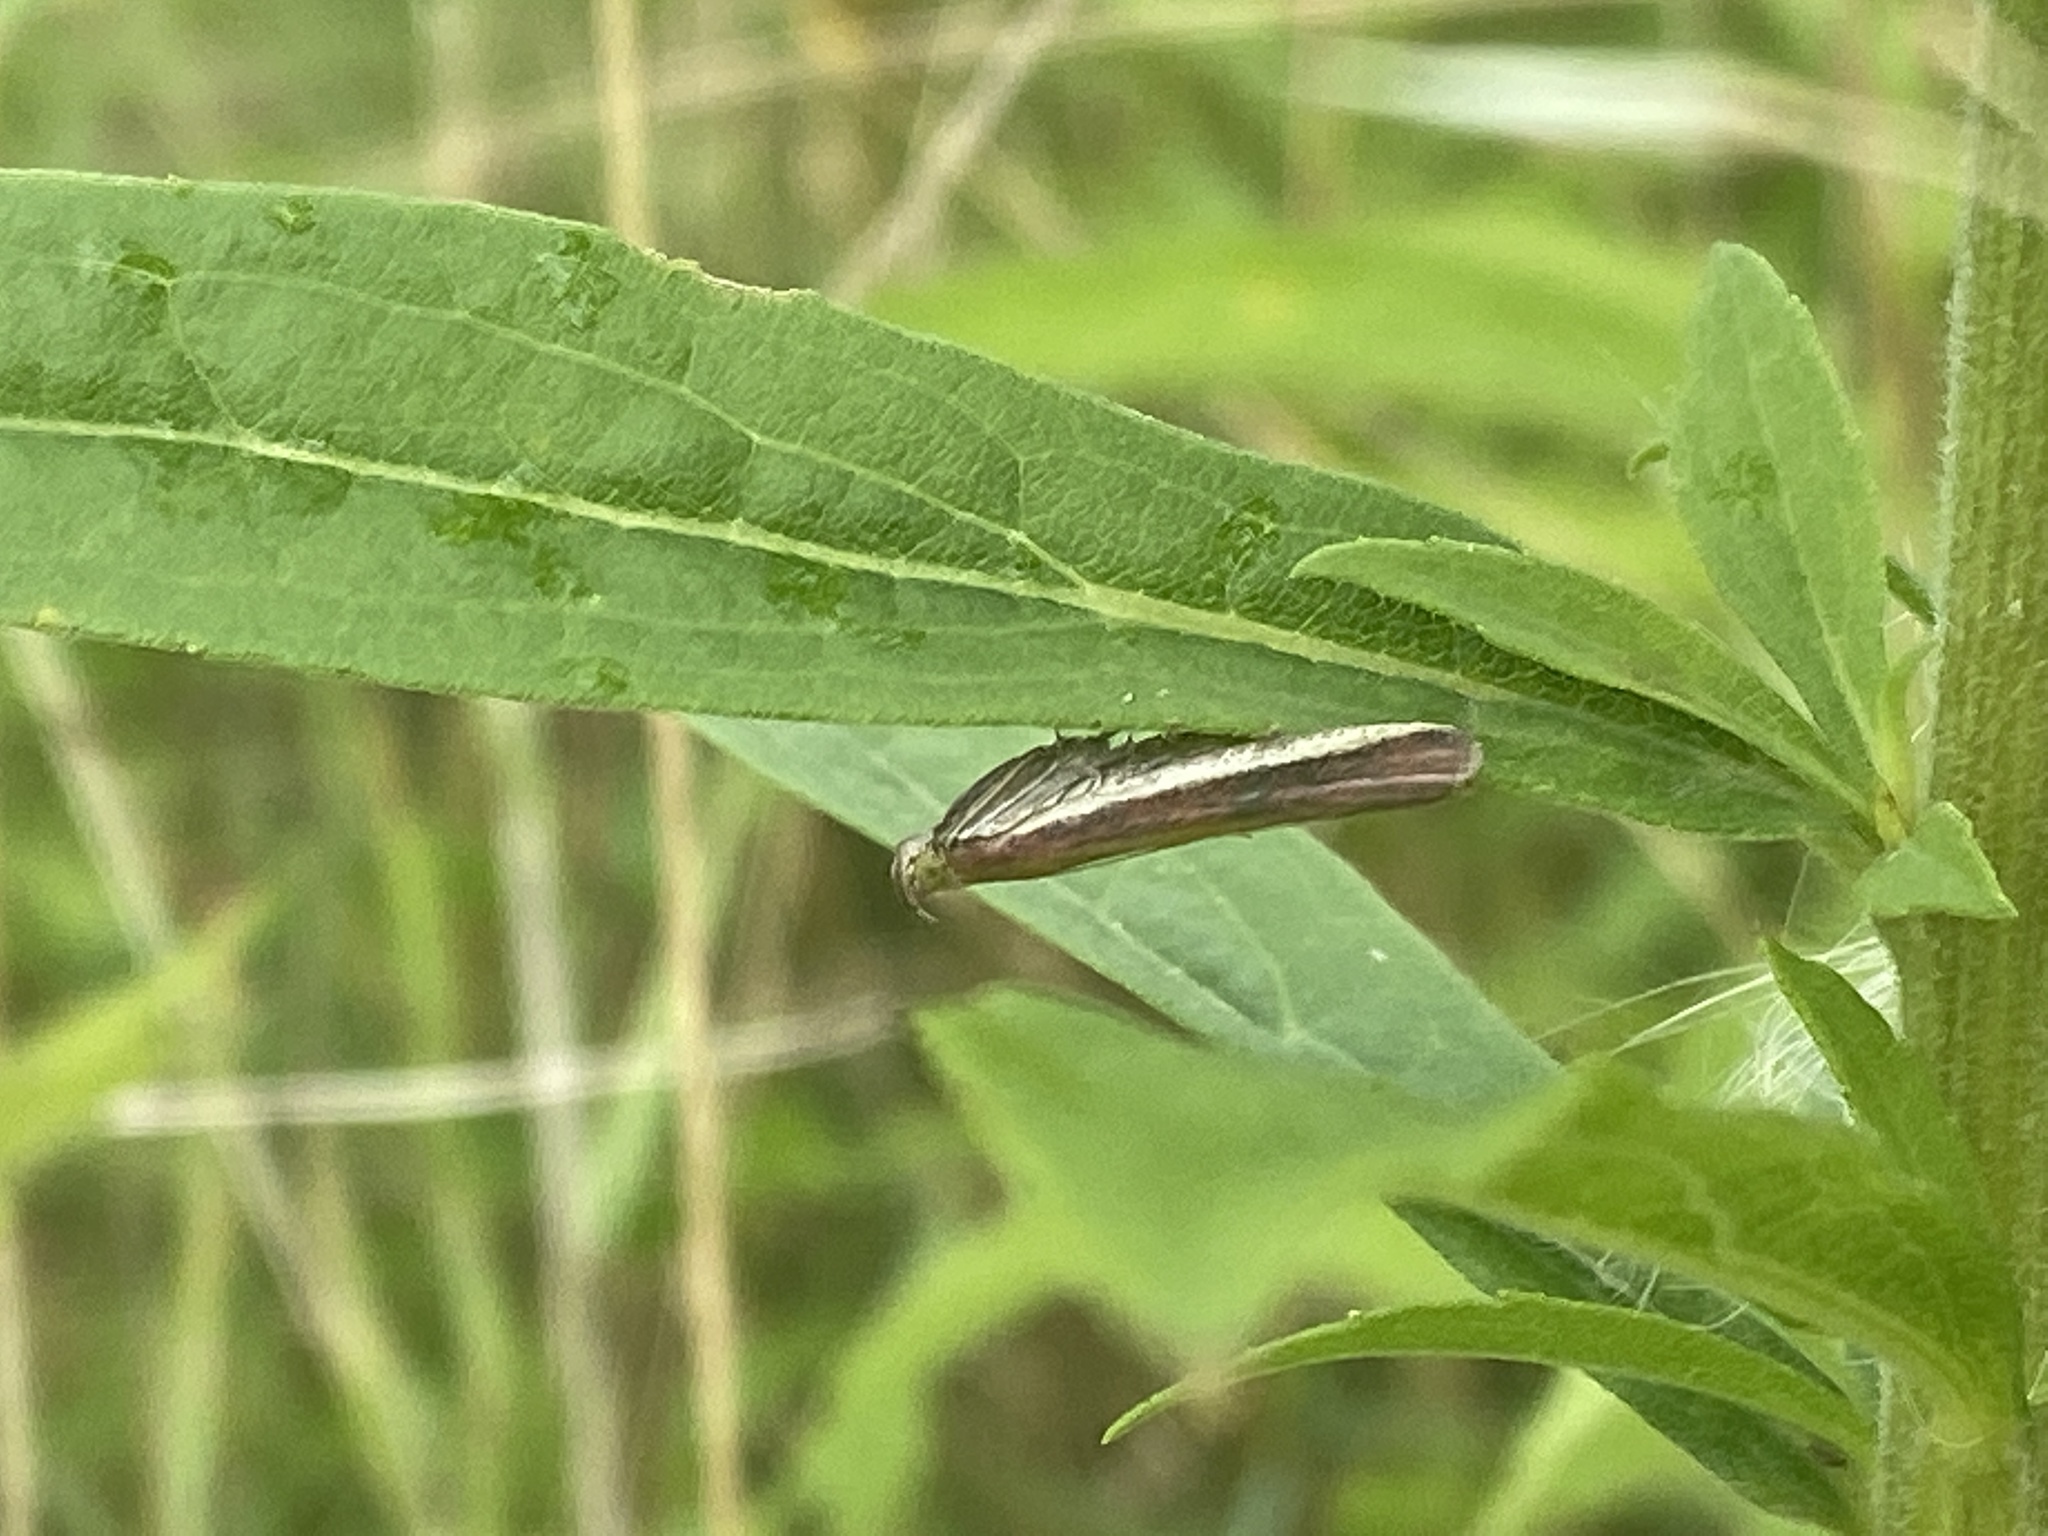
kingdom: Animalia
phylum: Arthropoda
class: Insecta
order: Lepidoptera
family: Pyralidae
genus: Oncocera
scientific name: Oncocera semirubella
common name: Rosy-striped knot-horn
